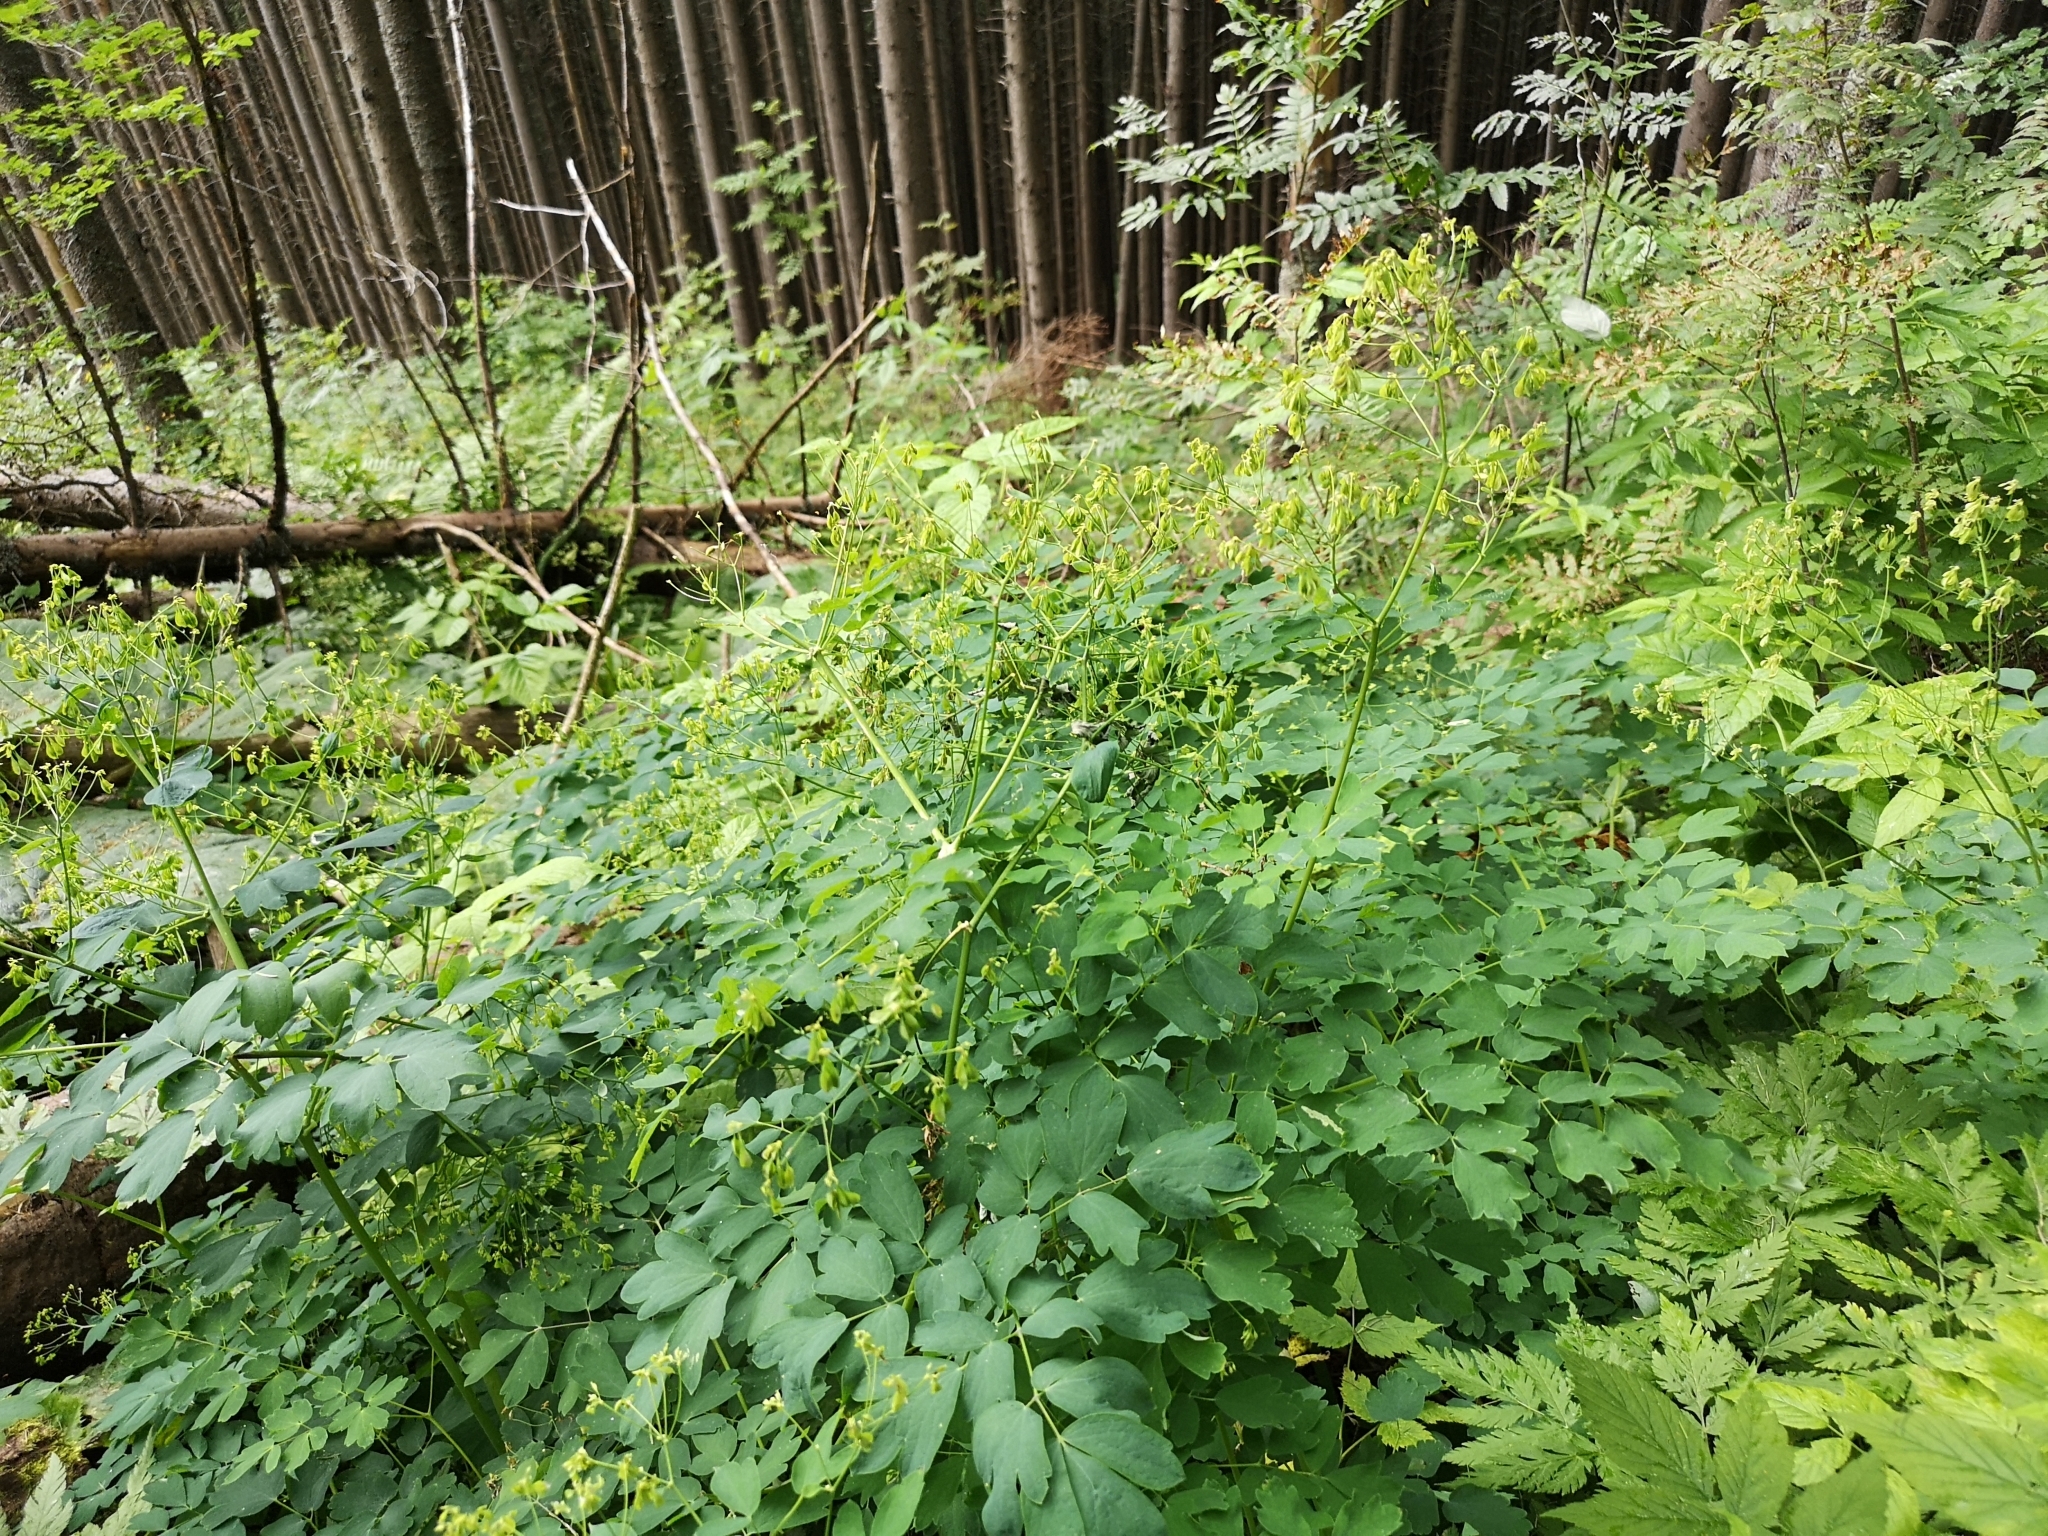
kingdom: Plantae
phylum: Tracheophyta
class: Magnoliopsida
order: Ranunculales
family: Ranunculaceae
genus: Thalictrum
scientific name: Thalictrum aquilegiifolium
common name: French meadow-rue
